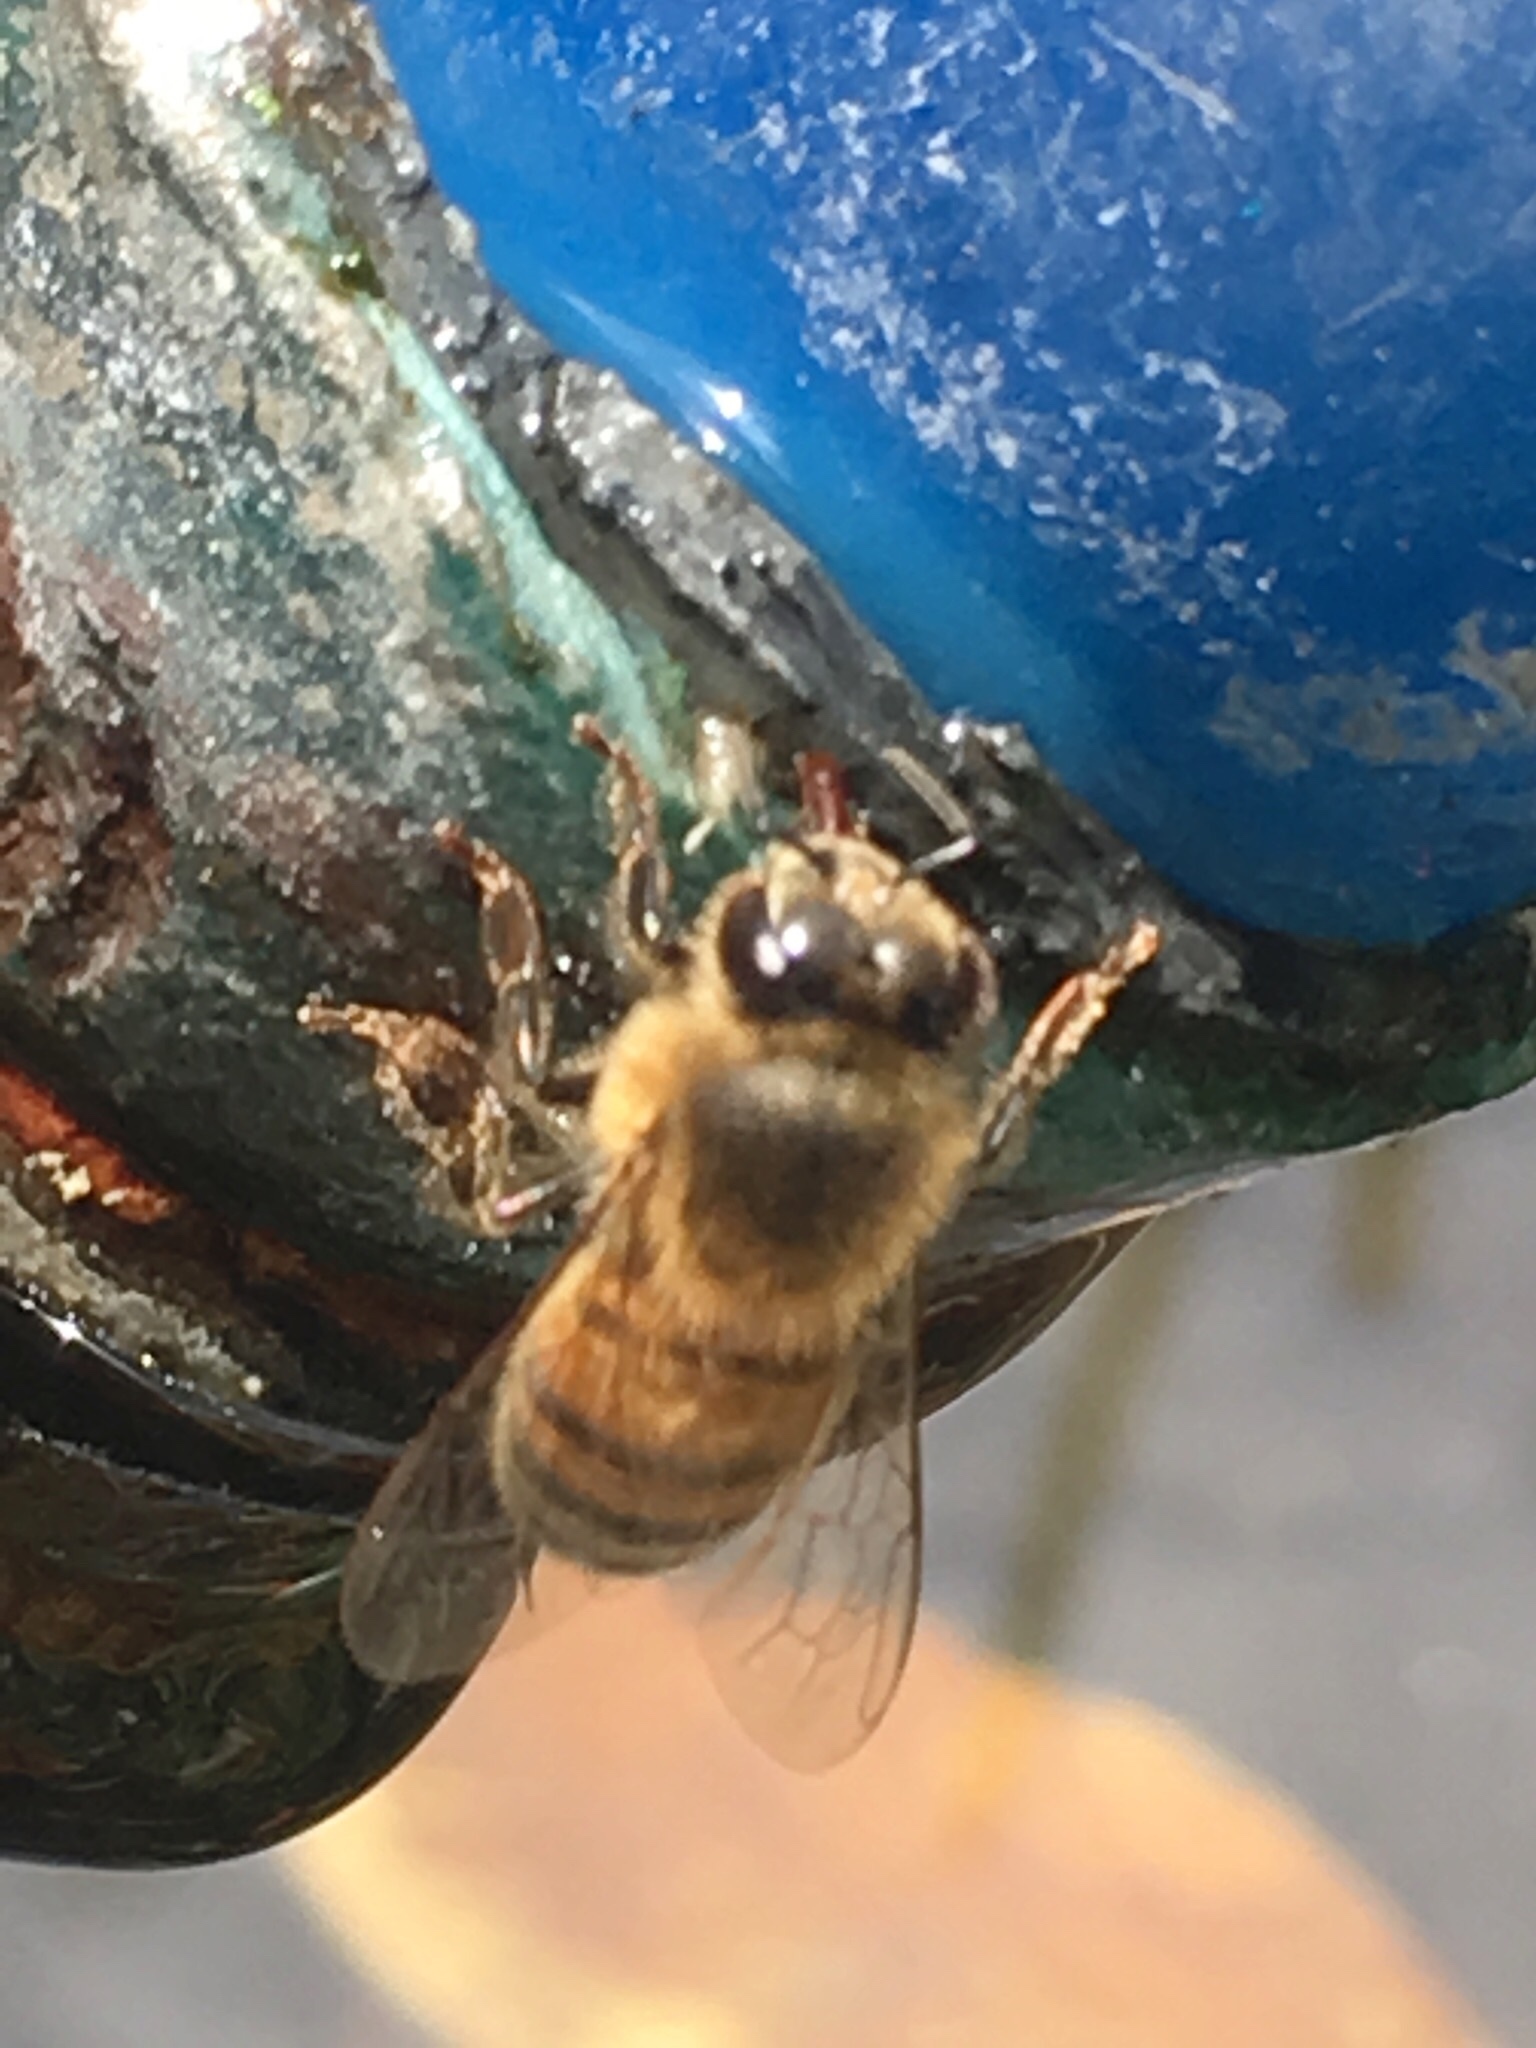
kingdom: Animalia
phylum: Arthropoda
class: Insecta
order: Hymenoptera
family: Apidae
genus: Apis
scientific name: Apis mellifera
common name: Honey bee
